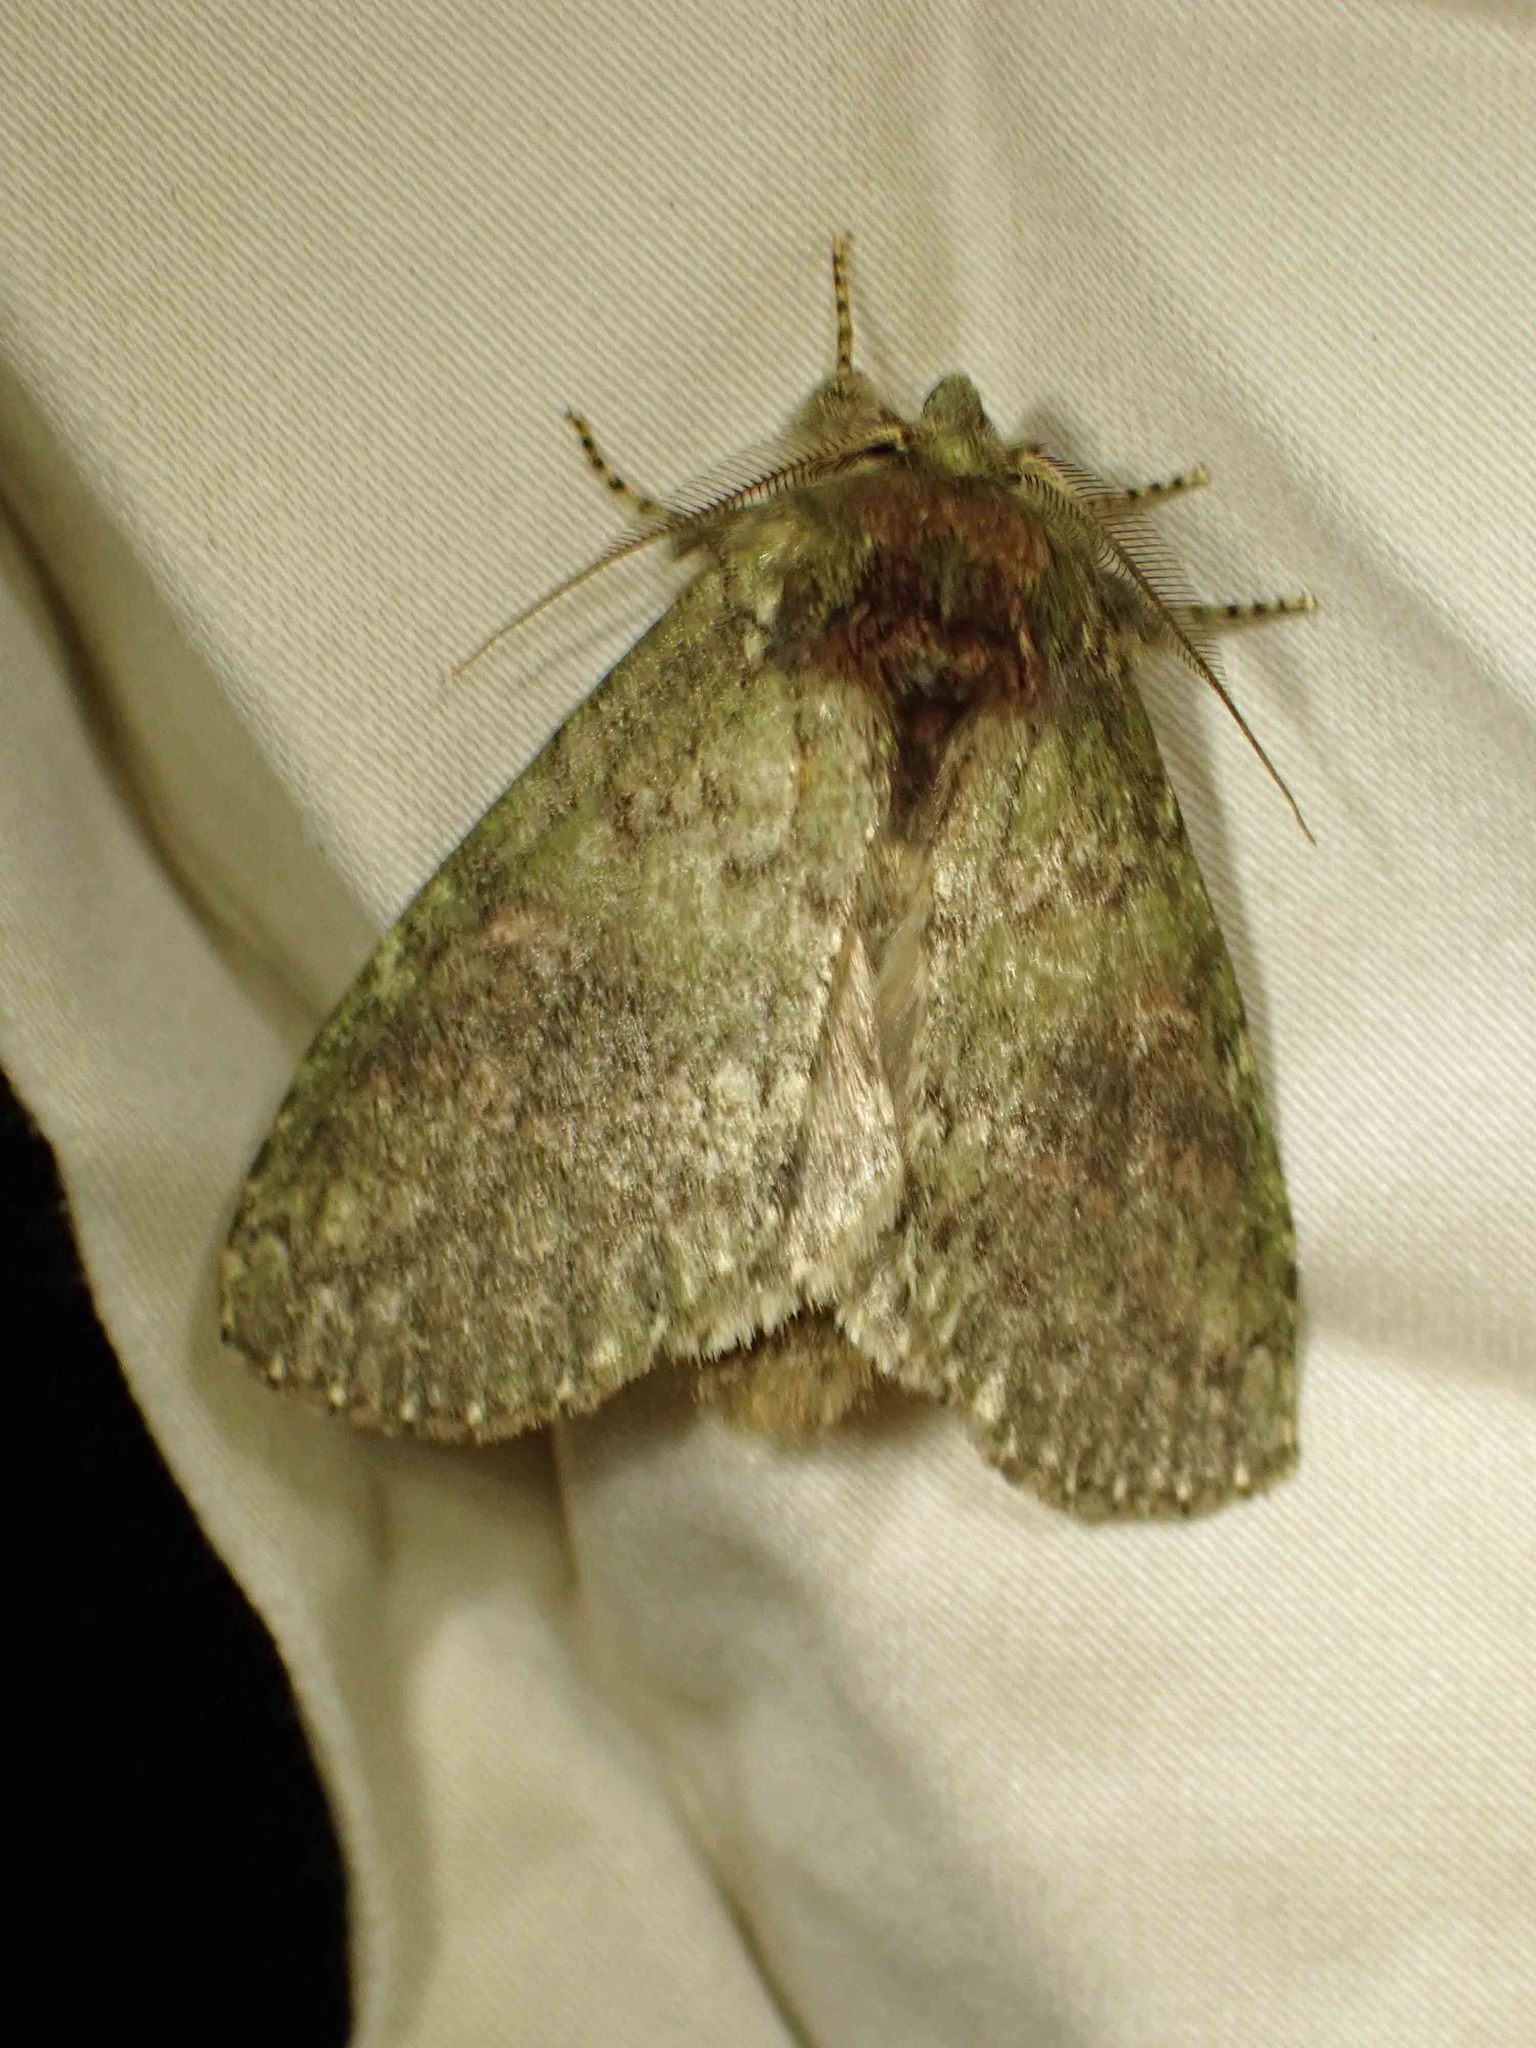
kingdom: Animalia
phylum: Arthropoda
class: Insecta
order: Lepidoptera
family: Notodontidae
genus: Disphragis
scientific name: Disphragis Cecrita biundata
